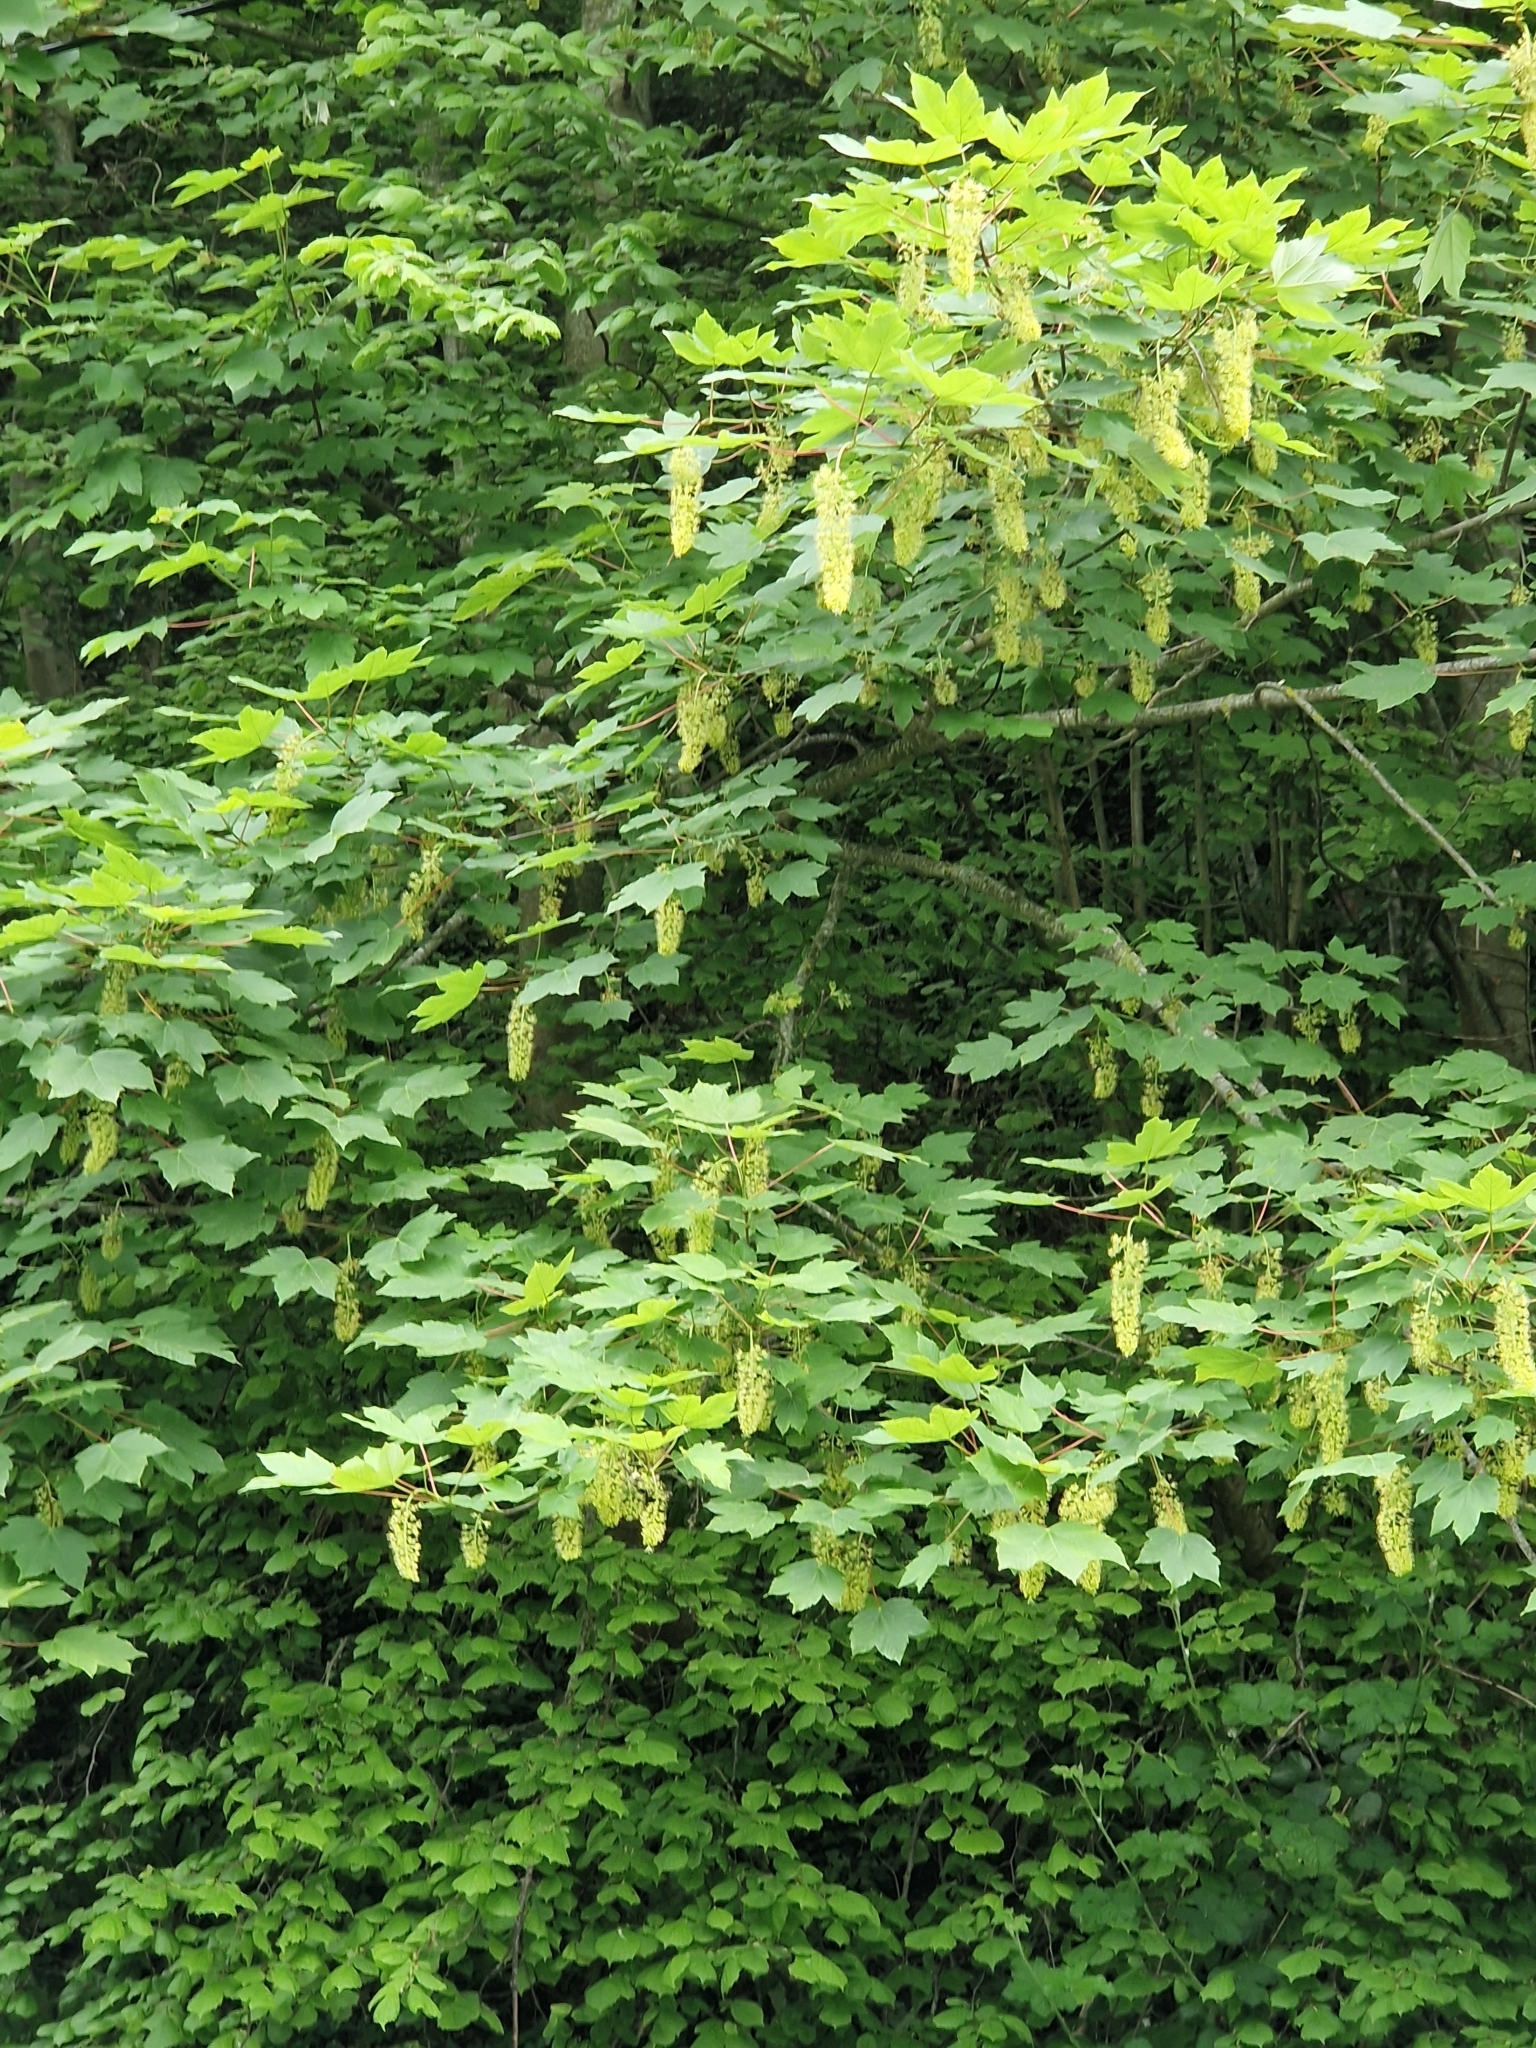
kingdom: Plantae
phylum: Tracheophyta
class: Magnoliopsida
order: Sapindales
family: Sapindaceae
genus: Acer
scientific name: Acer pseudoplatanus
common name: Sycamore
